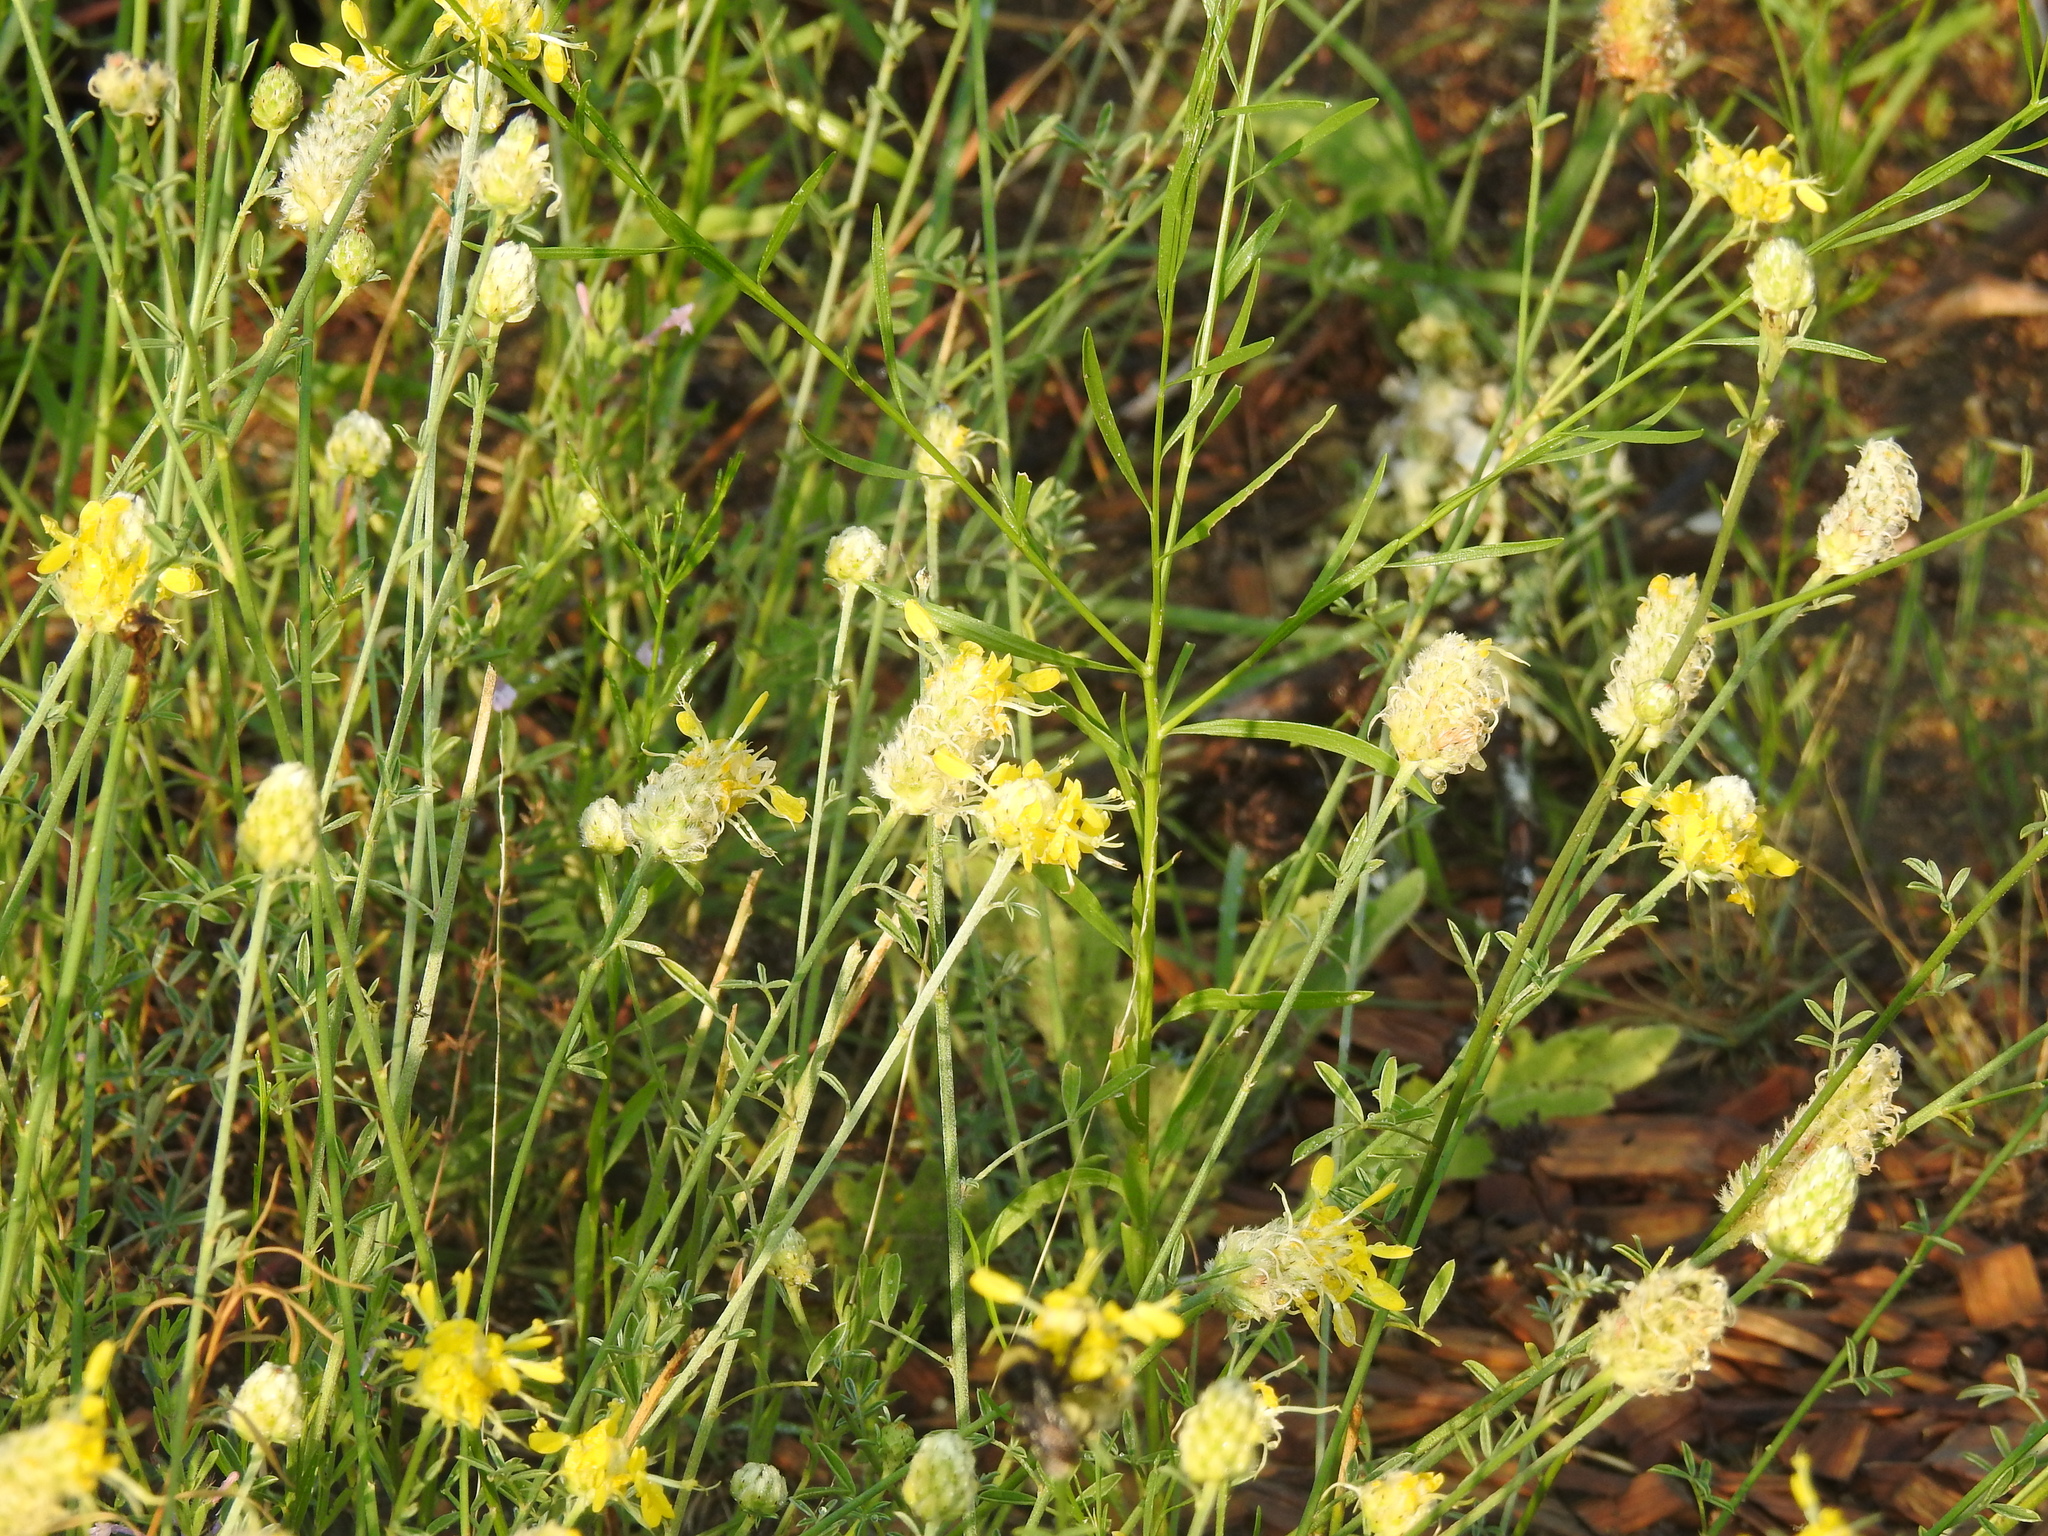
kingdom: Plantae
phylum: Tracheophyta
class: Magnoliopsida
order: Fabales
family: Fabaceae
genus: Dalea
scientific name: Dalea aurea
